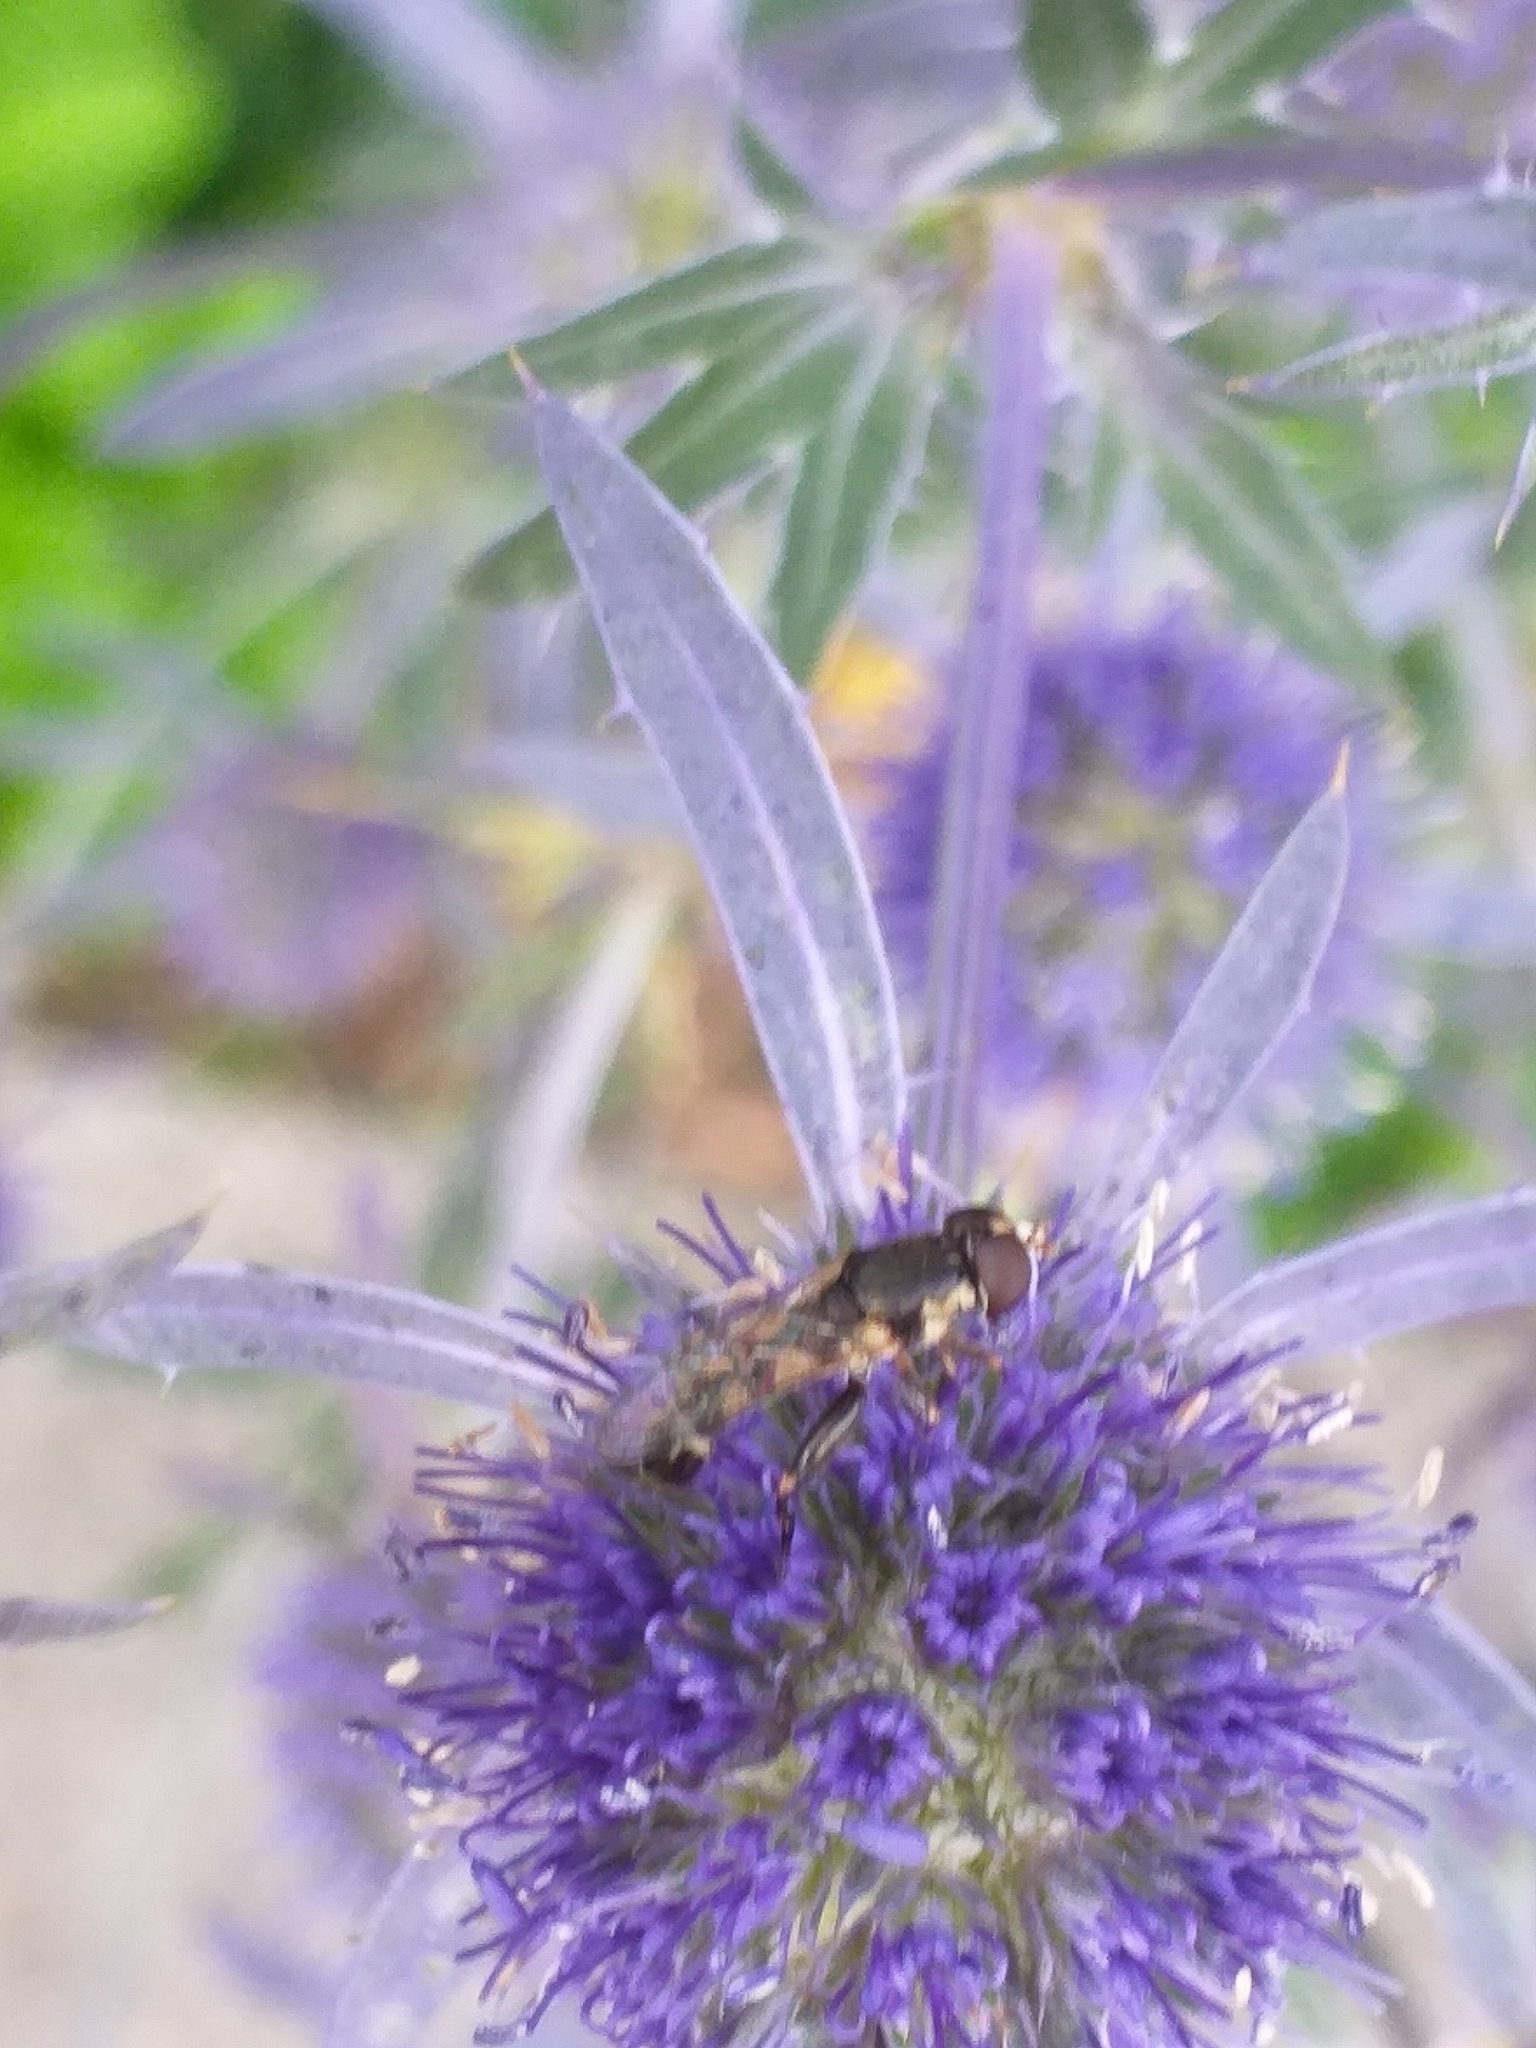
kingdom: Animalia
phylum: Arthropoda
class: Insecta
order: Diptera
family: Syrphidae
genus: Syritta
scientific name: Syritta pipiens
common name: Hover fly
